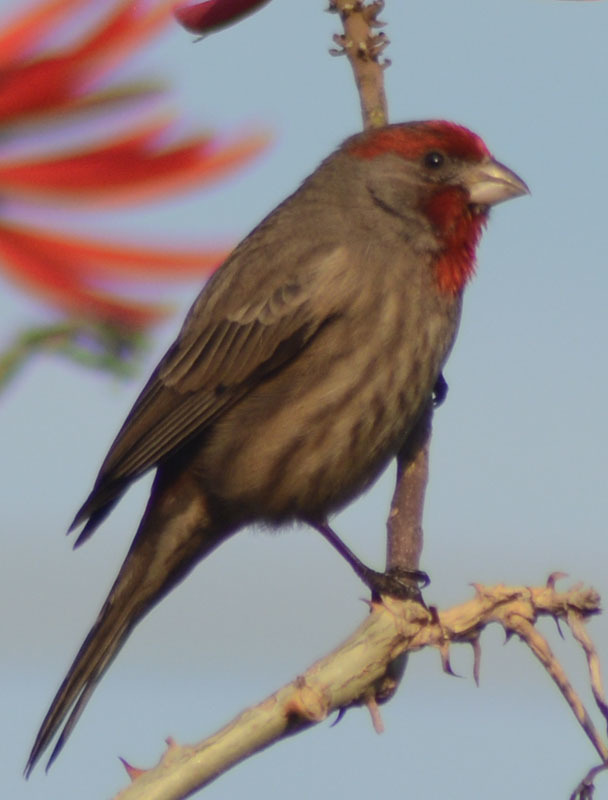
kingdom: Animalia
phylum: Chordata
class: Aves
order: Passeriformes
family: Fringillidae
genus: Haemorhous
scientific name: Haemorhous mexicanus
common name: House finch
